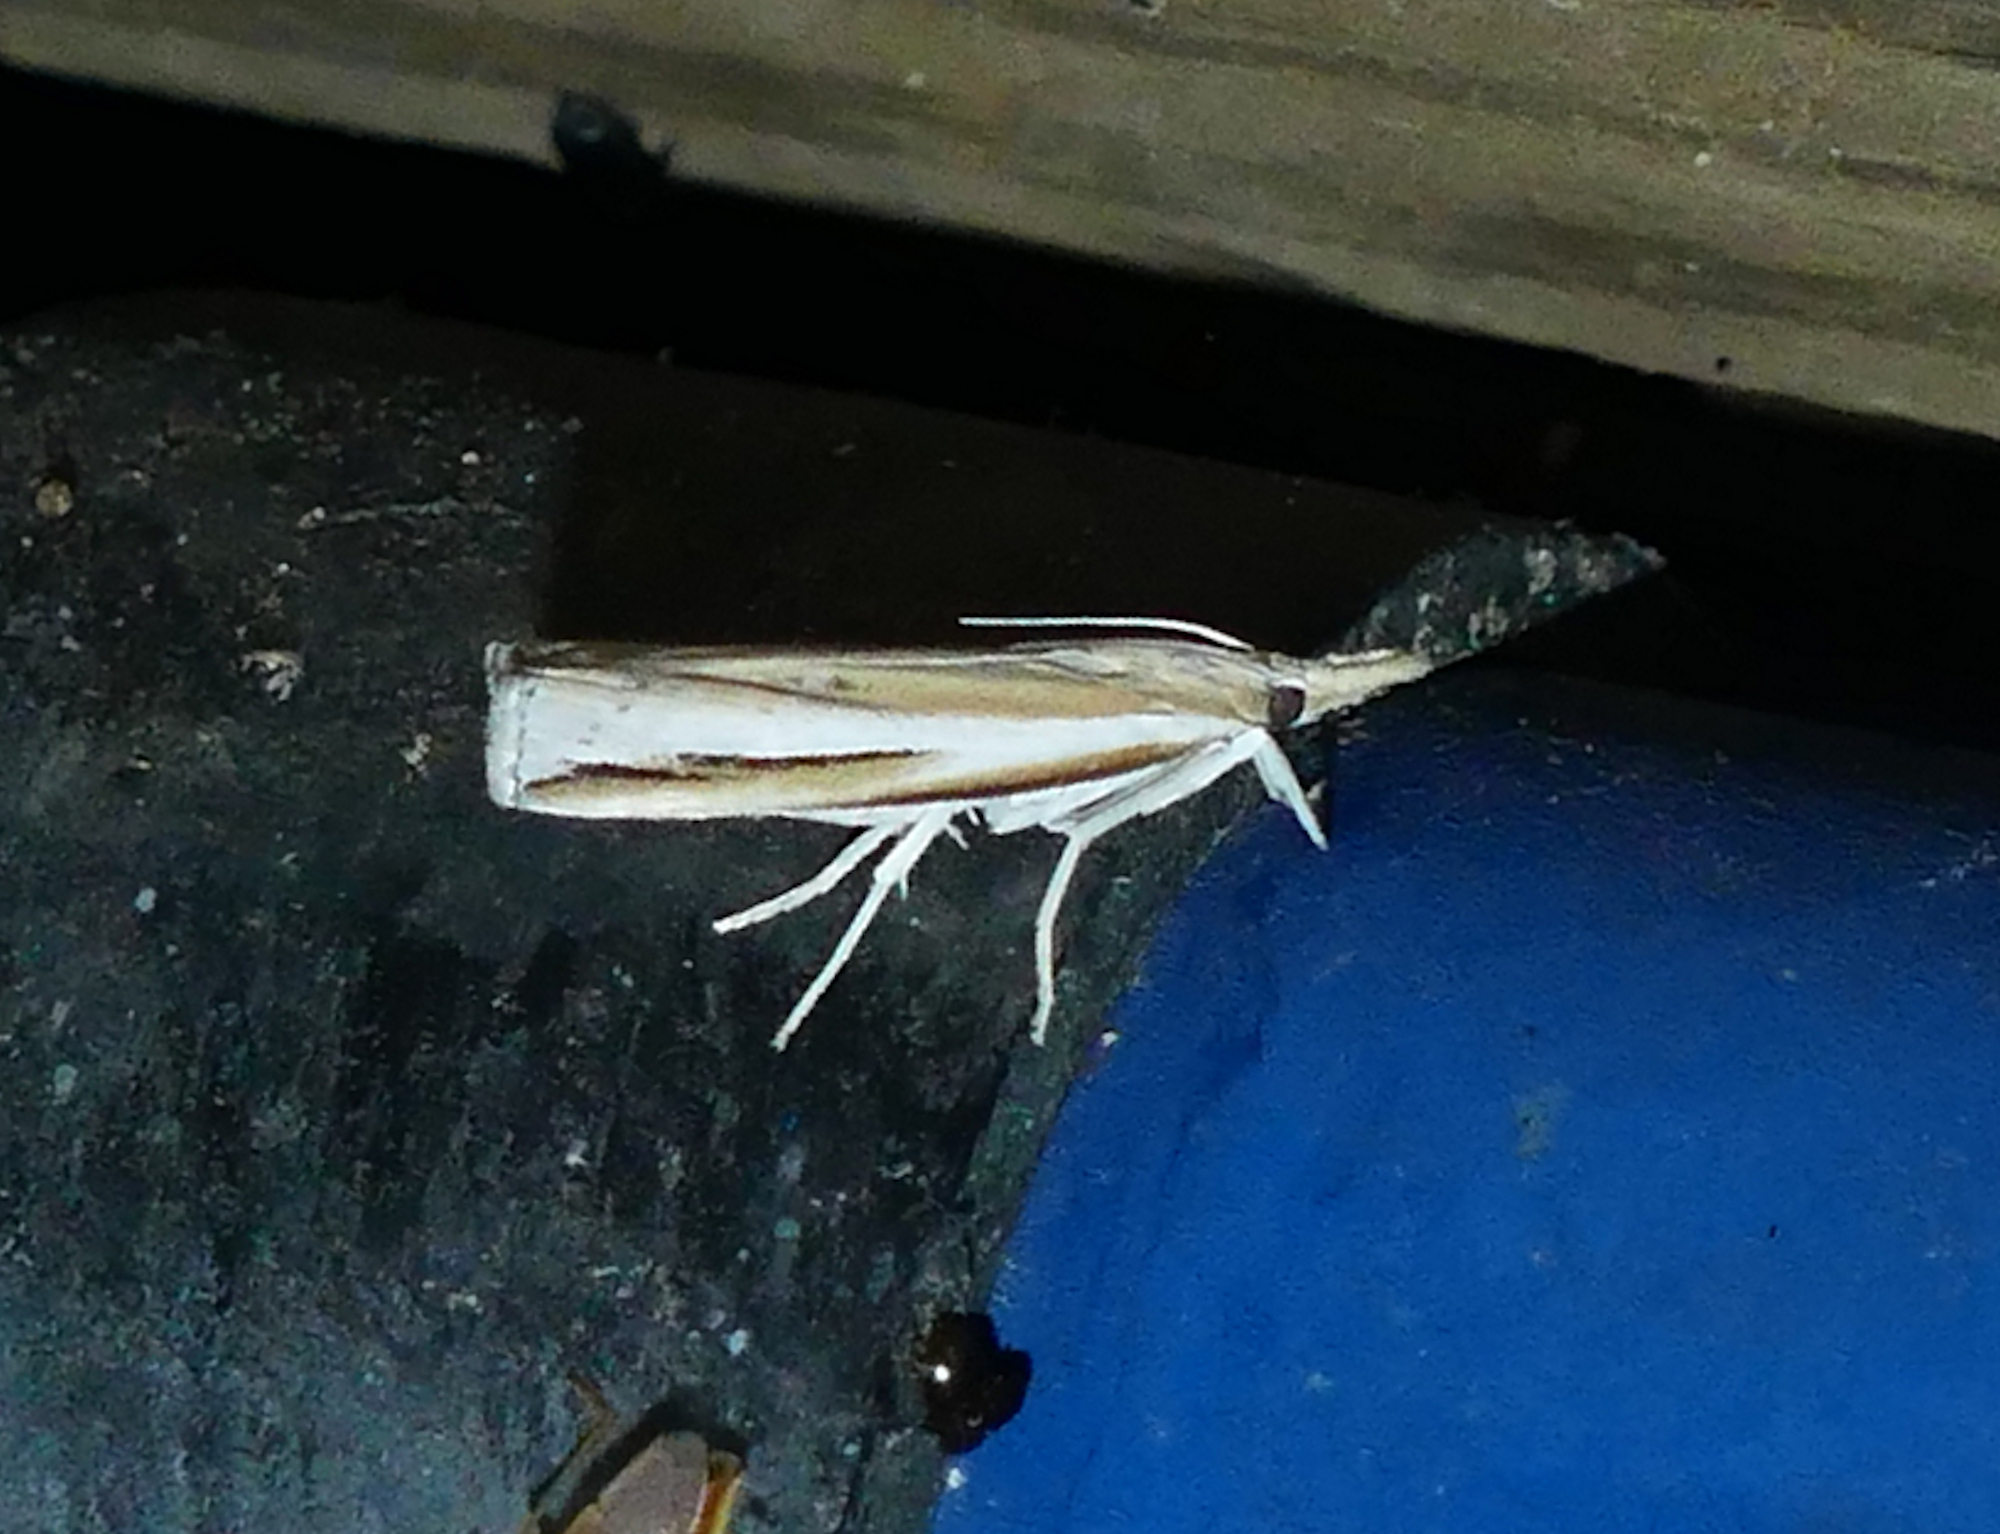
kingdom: Animalia
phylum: Arthropoda
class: Insecta
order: Lepidoptera
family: Crambidae
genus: Fissicrambus
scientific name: Fissicrambus fissiradiellus
